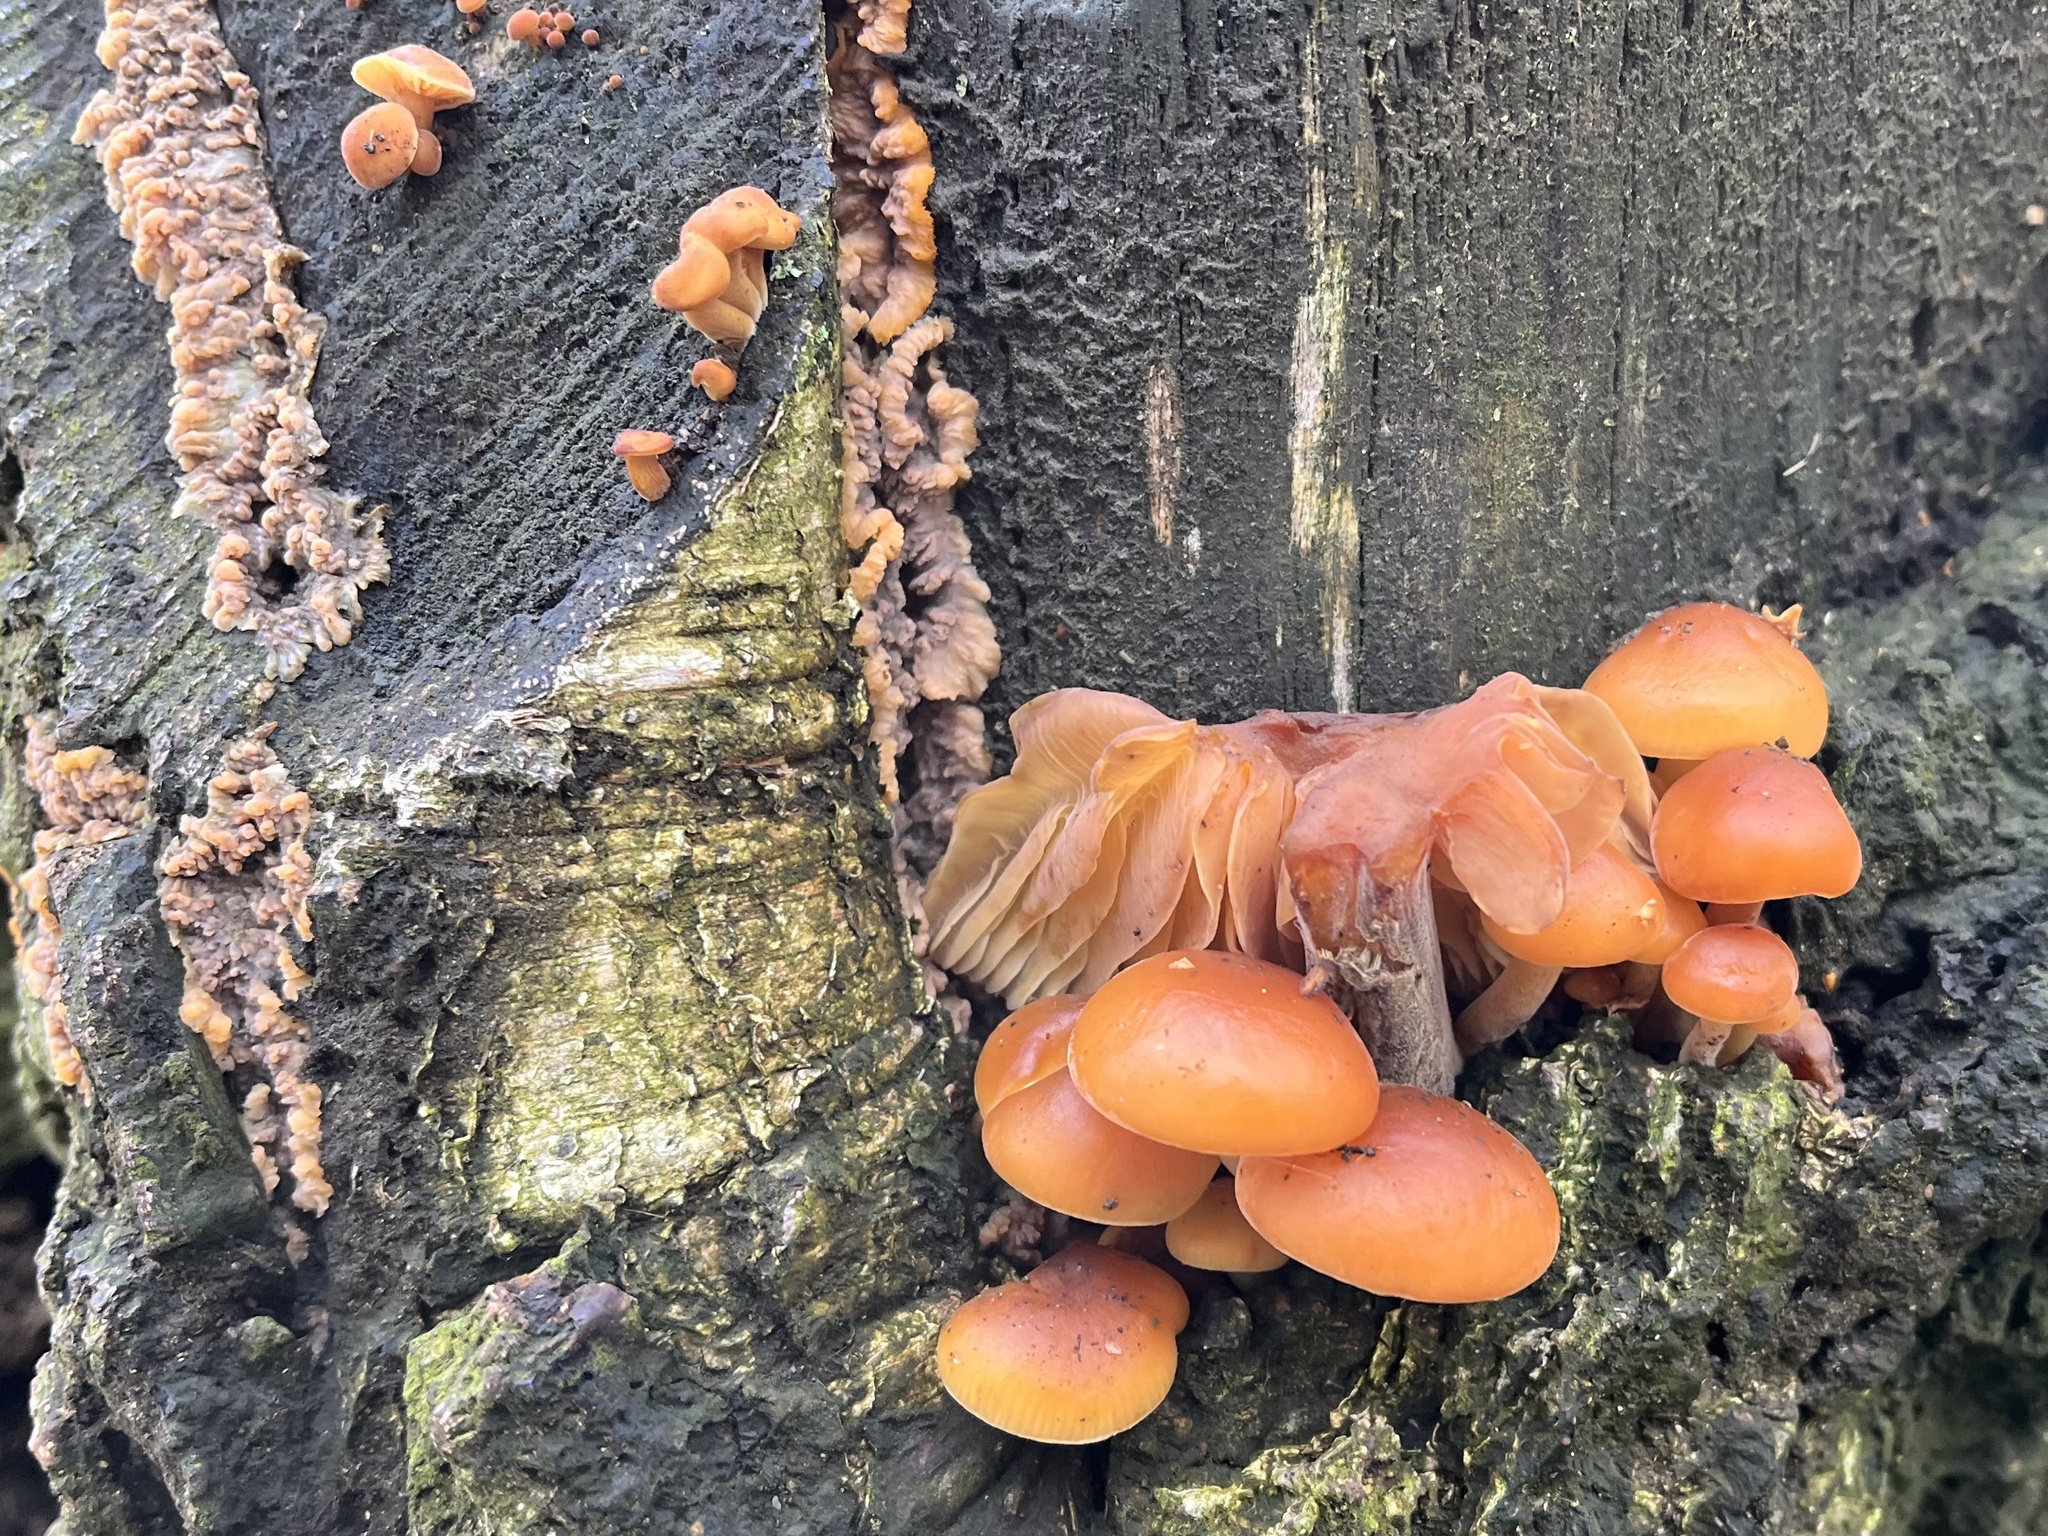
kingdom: Fungi
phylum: Basidiomycota
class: Agaricomycetes
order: Agaricales
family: Physalacriaceae
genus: Flammulina
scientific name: Flammulina
